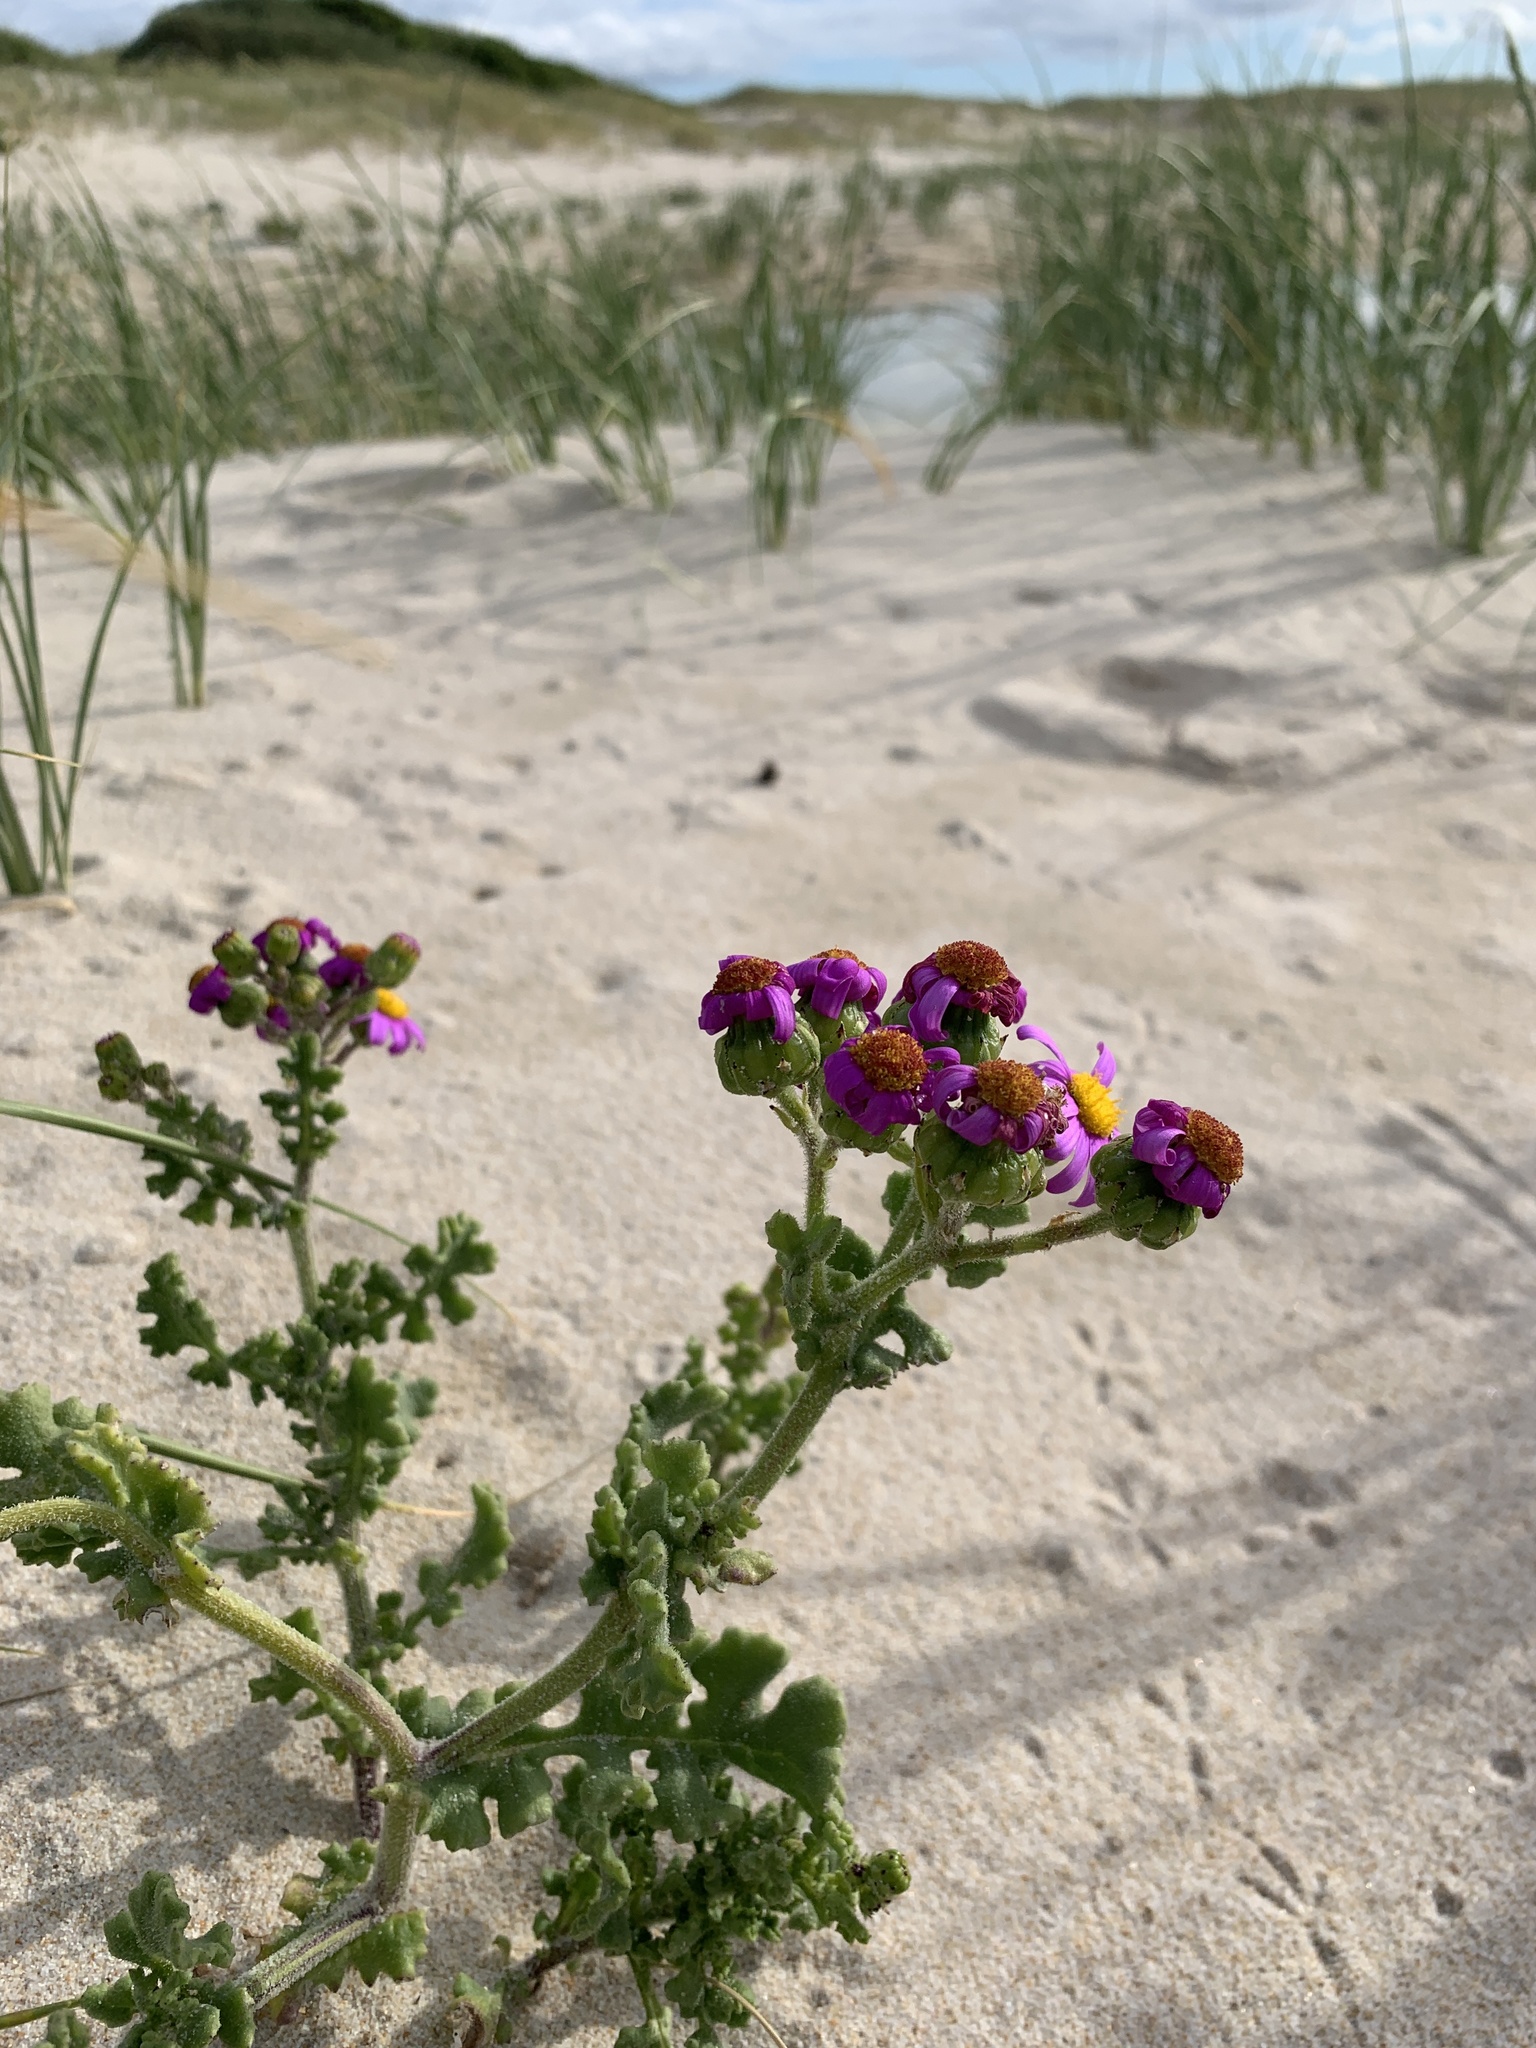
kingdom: Plantae
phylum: Tracheophyta
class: Magnoliopsida
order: Asterales
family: Asteraceae
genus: Senecio
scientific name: Senecio elegans
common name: Purple groundsel
